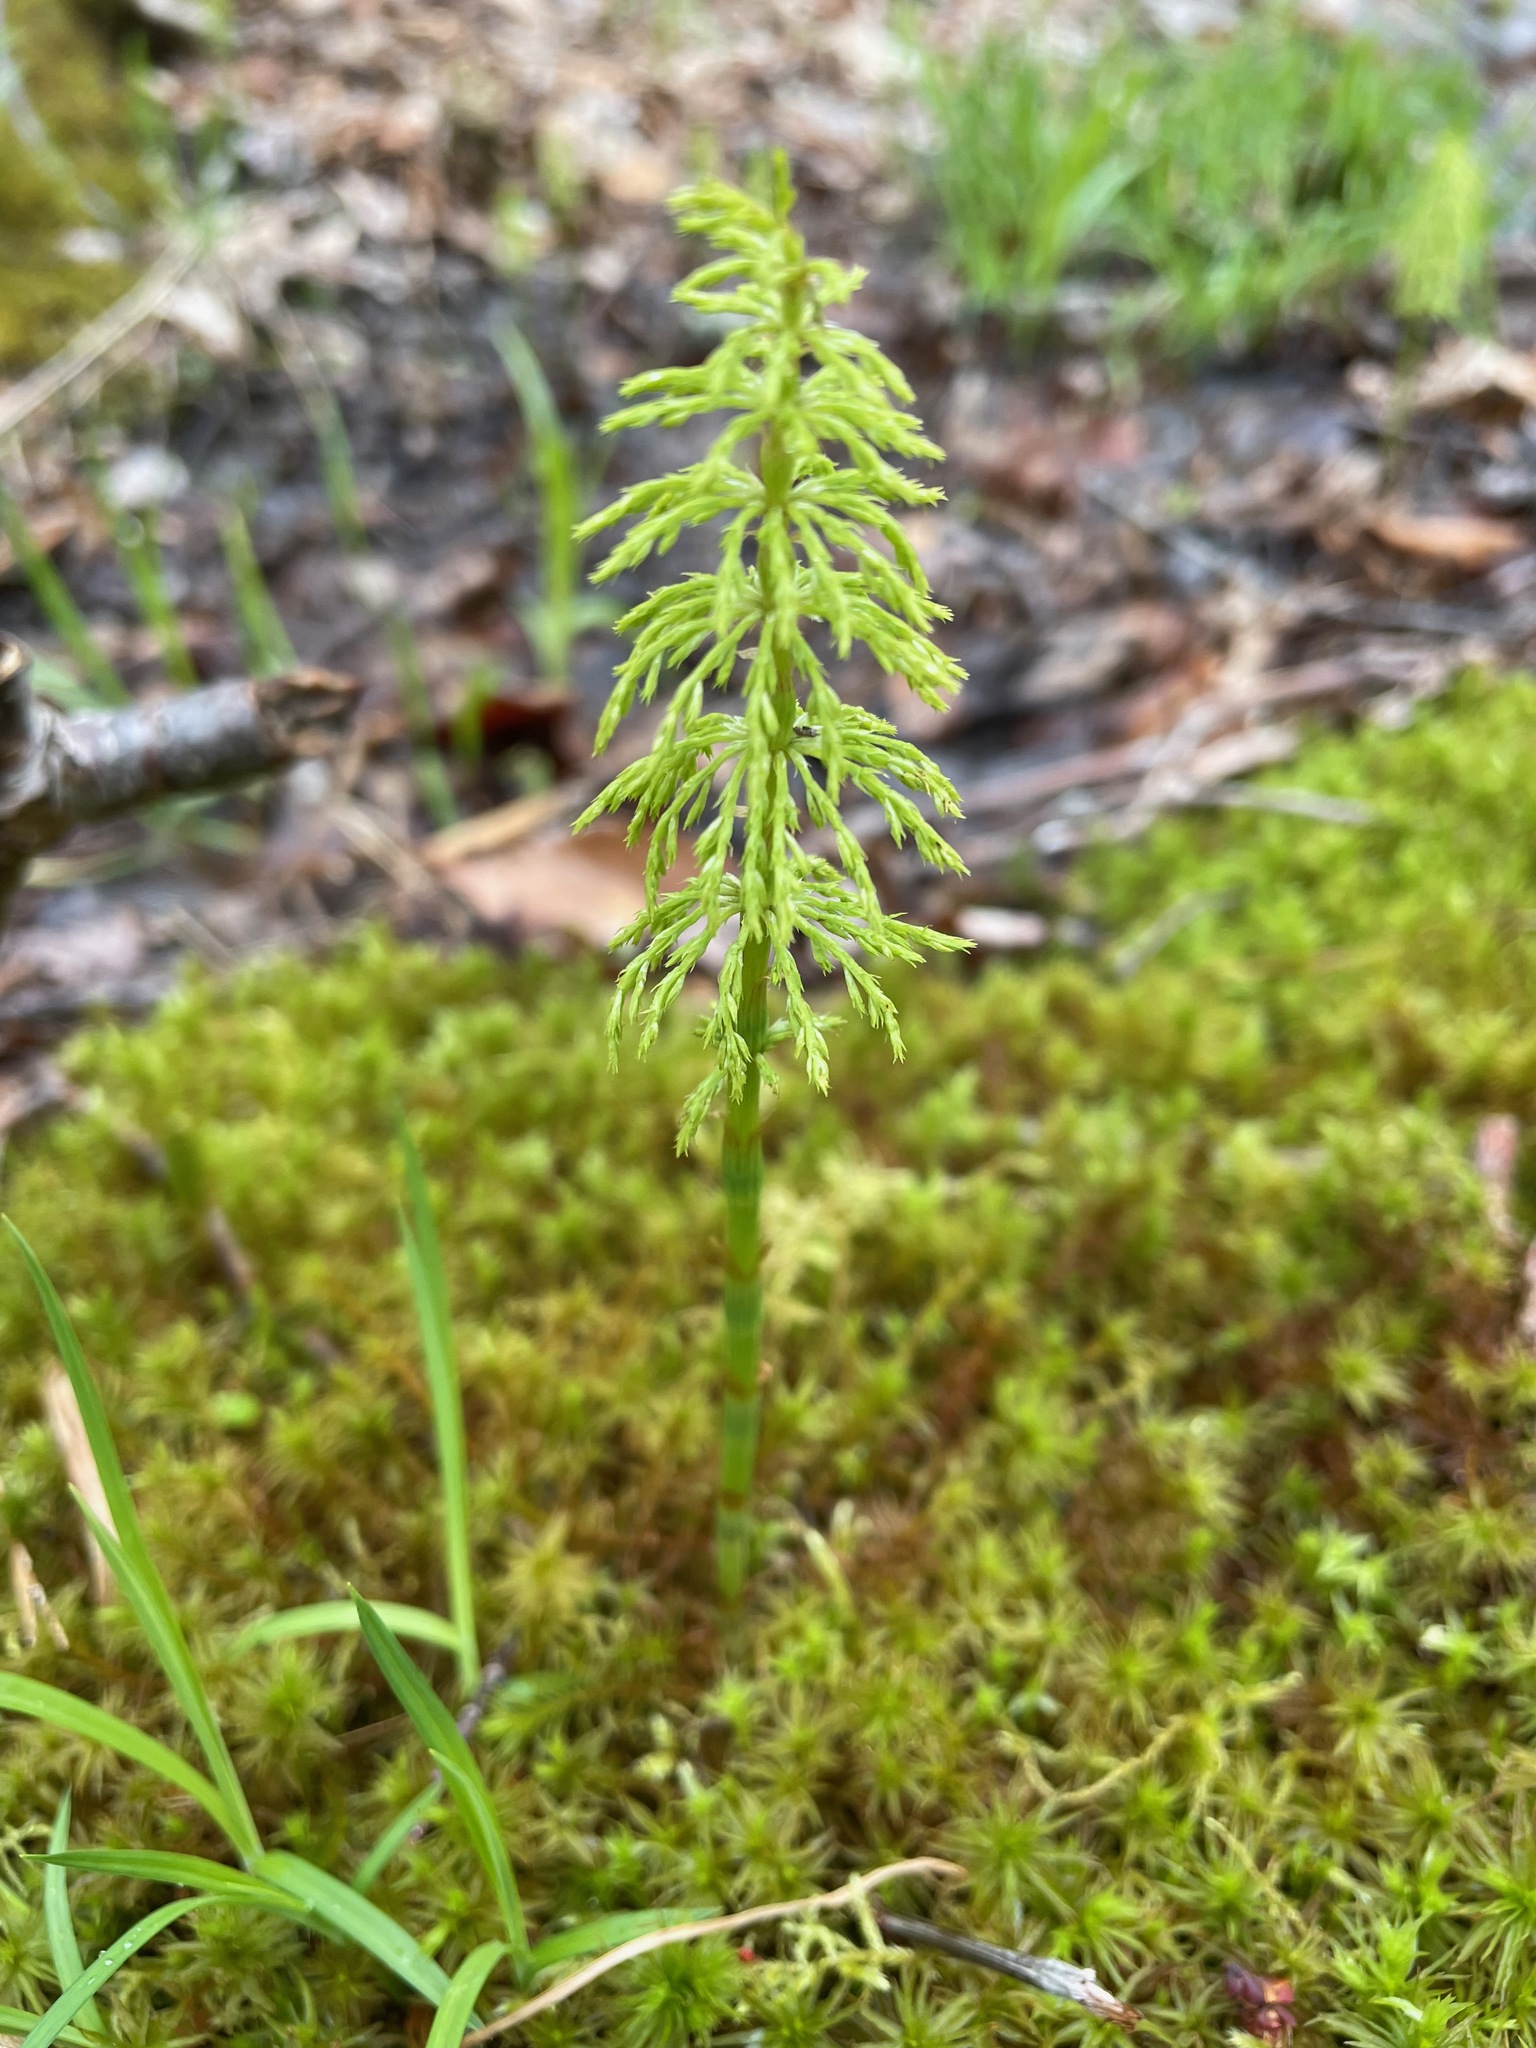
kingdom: Plantae
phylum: Tracheophyta
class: Polypodiopsida
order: Equisetales
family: Equisetaceae
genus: Equisetum
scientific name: Equisetum sylvaticum
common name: Wood horsetail
